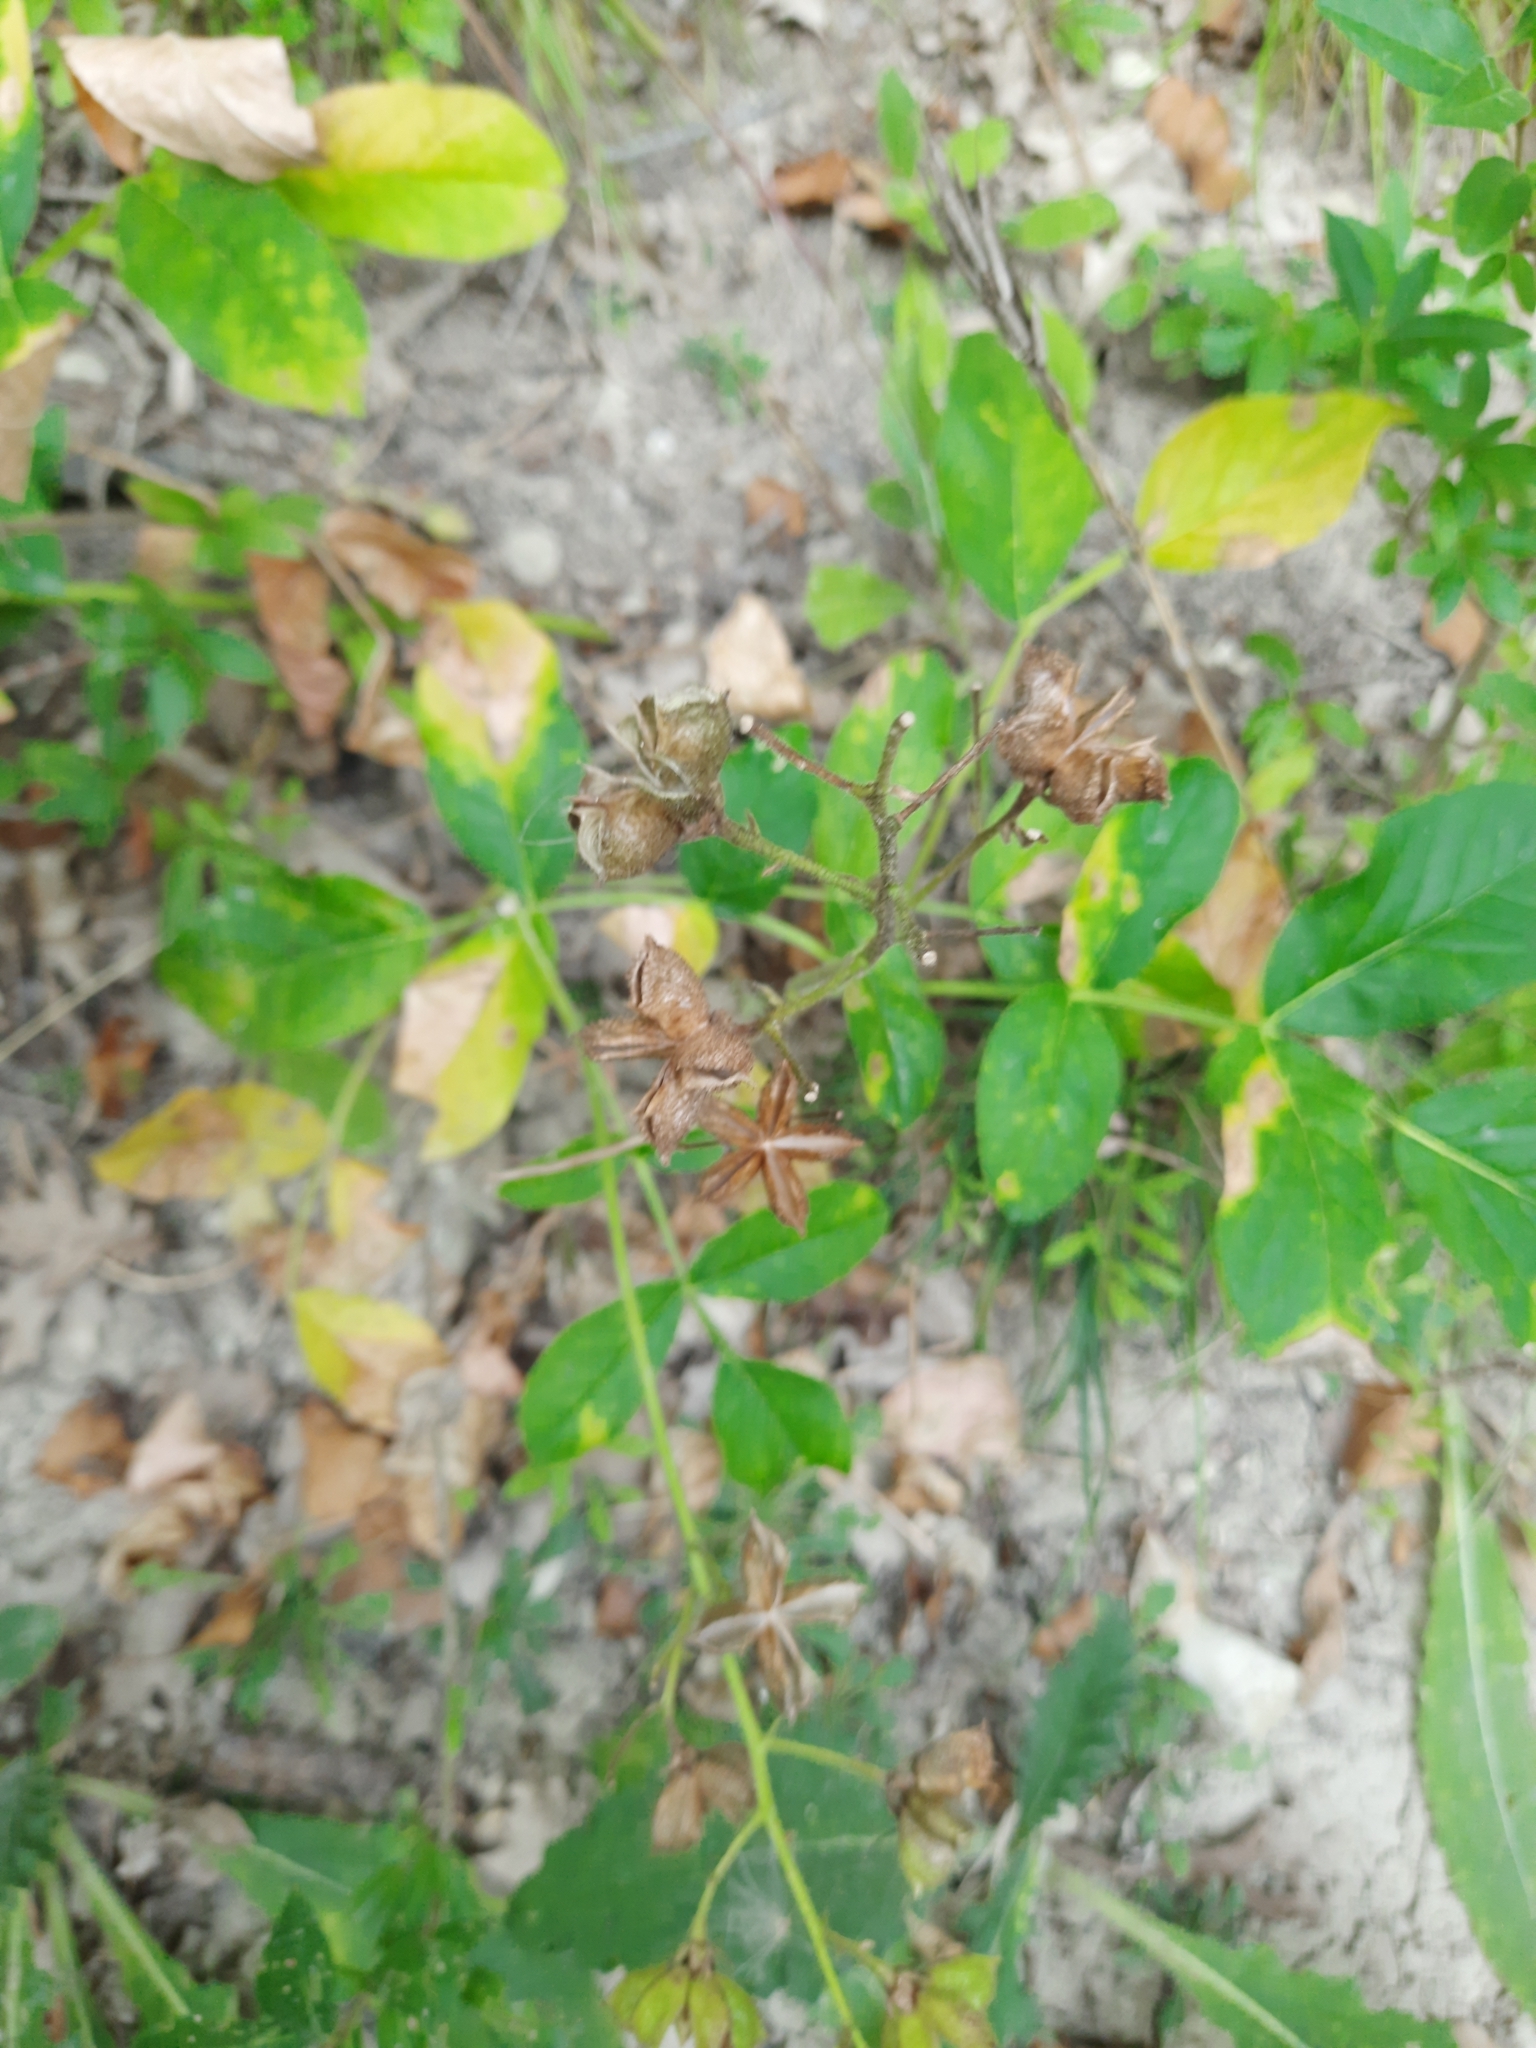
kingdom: Plantae
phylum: Tracheophyta
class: Magnoliopsida
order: Sapindales
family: Rutaceae
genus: Dictamnus
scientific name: Dictamnus albus
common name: Gasplant
